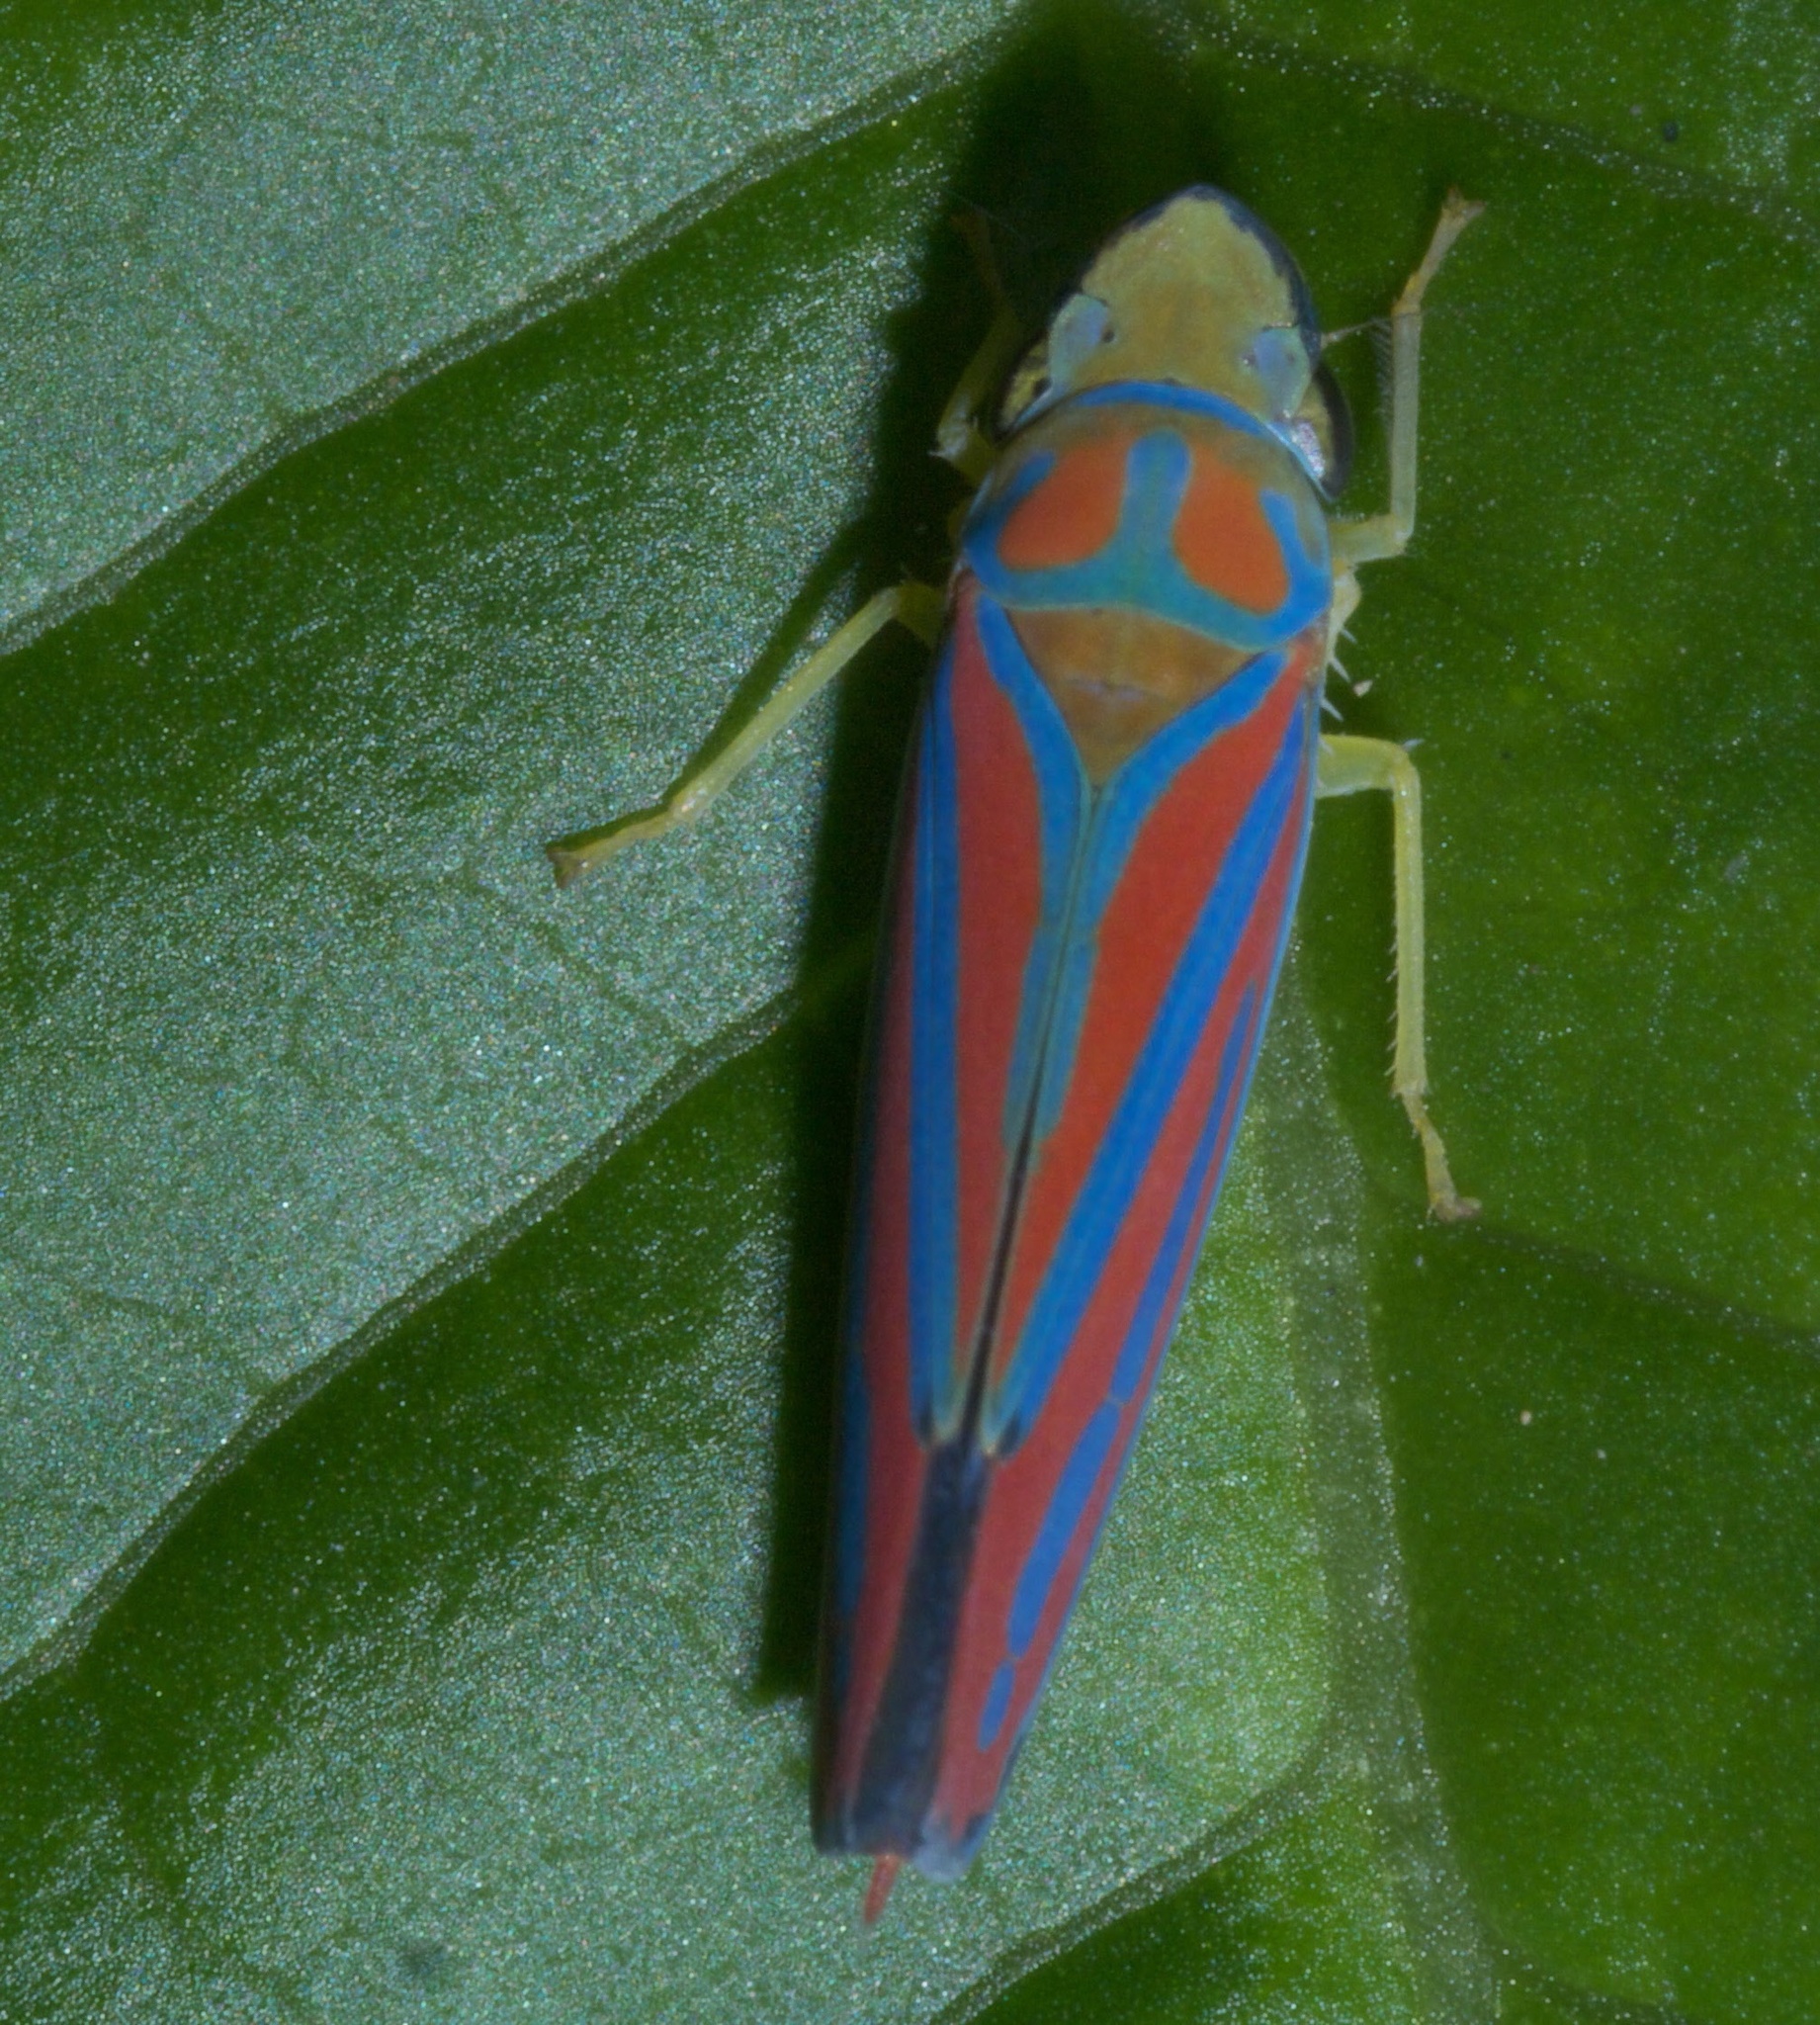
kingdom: Animalia
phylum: Arthropoda
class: Insecta
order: Hemiptera
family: Cicadellidae
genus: Graphocephala
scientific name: Graphocephala coccinea
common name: Candy-striped leafhopper
